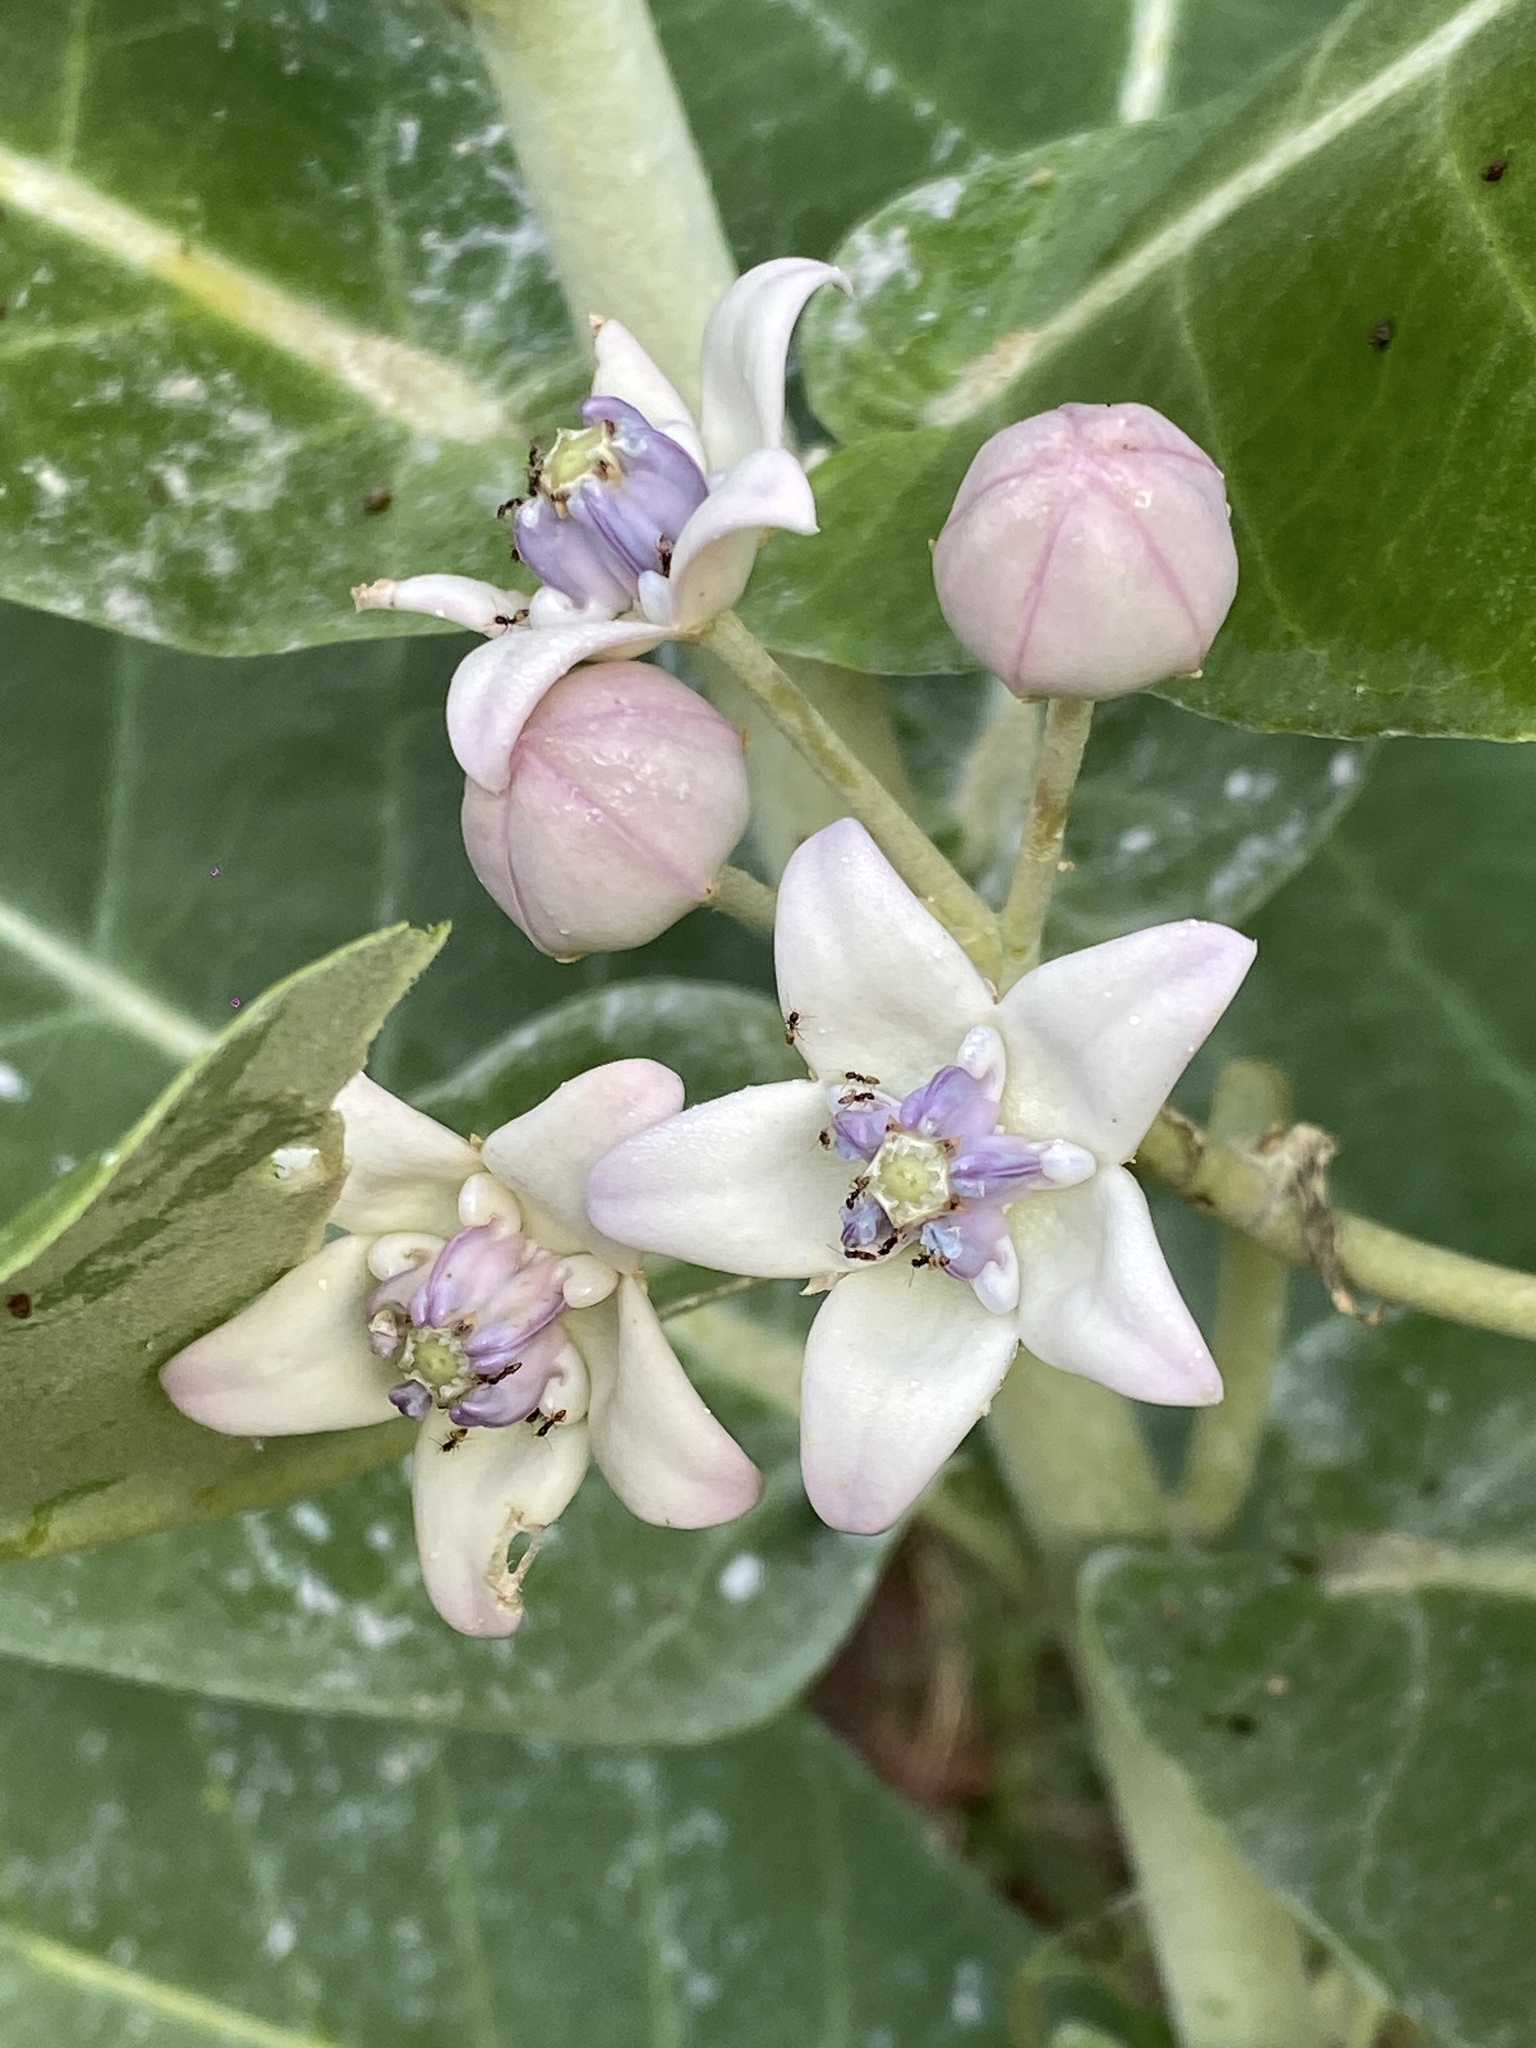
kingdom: Plantae
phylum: Tracheophyta
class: Magnoliopsida
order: Gentianales
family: Apocynaceae
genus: Calotropis
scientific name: Calotropis gigantea
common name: Crown flower
